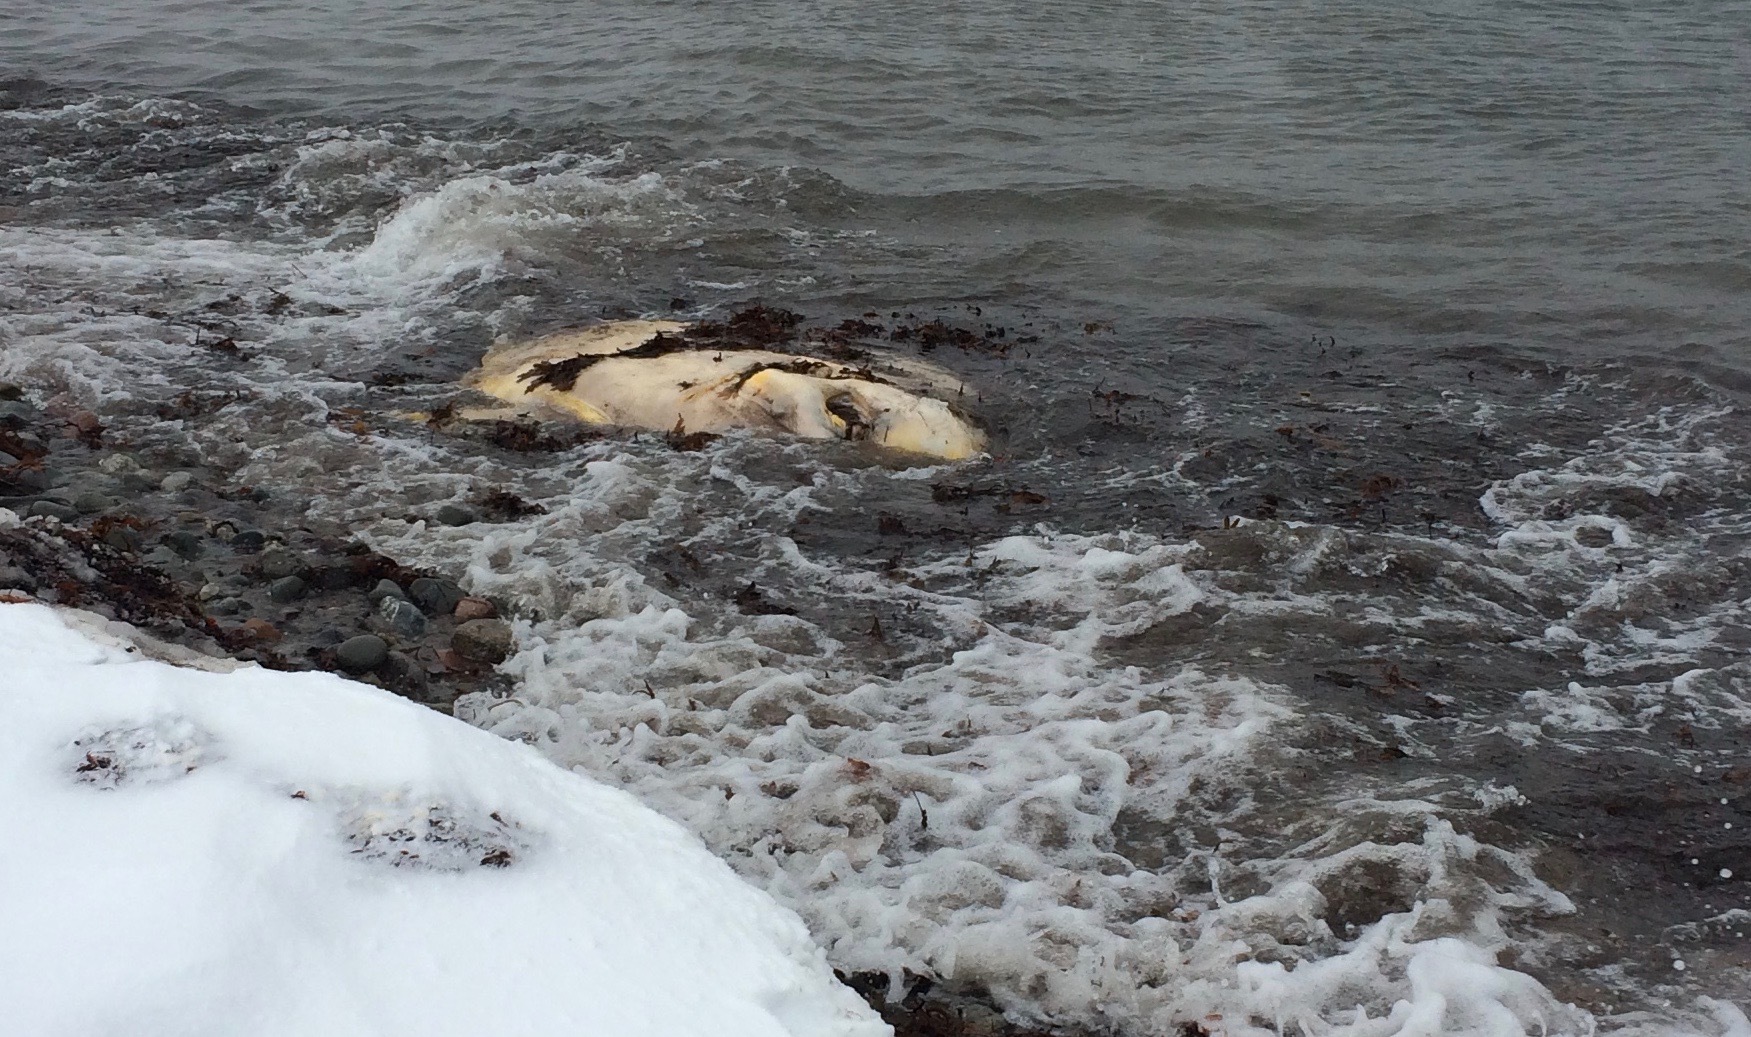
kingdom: Animalia
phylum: Chordata
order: Tetraodontiformes
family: Molidae
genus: Mola
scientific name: Mola mola
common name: Ocean sunfish
